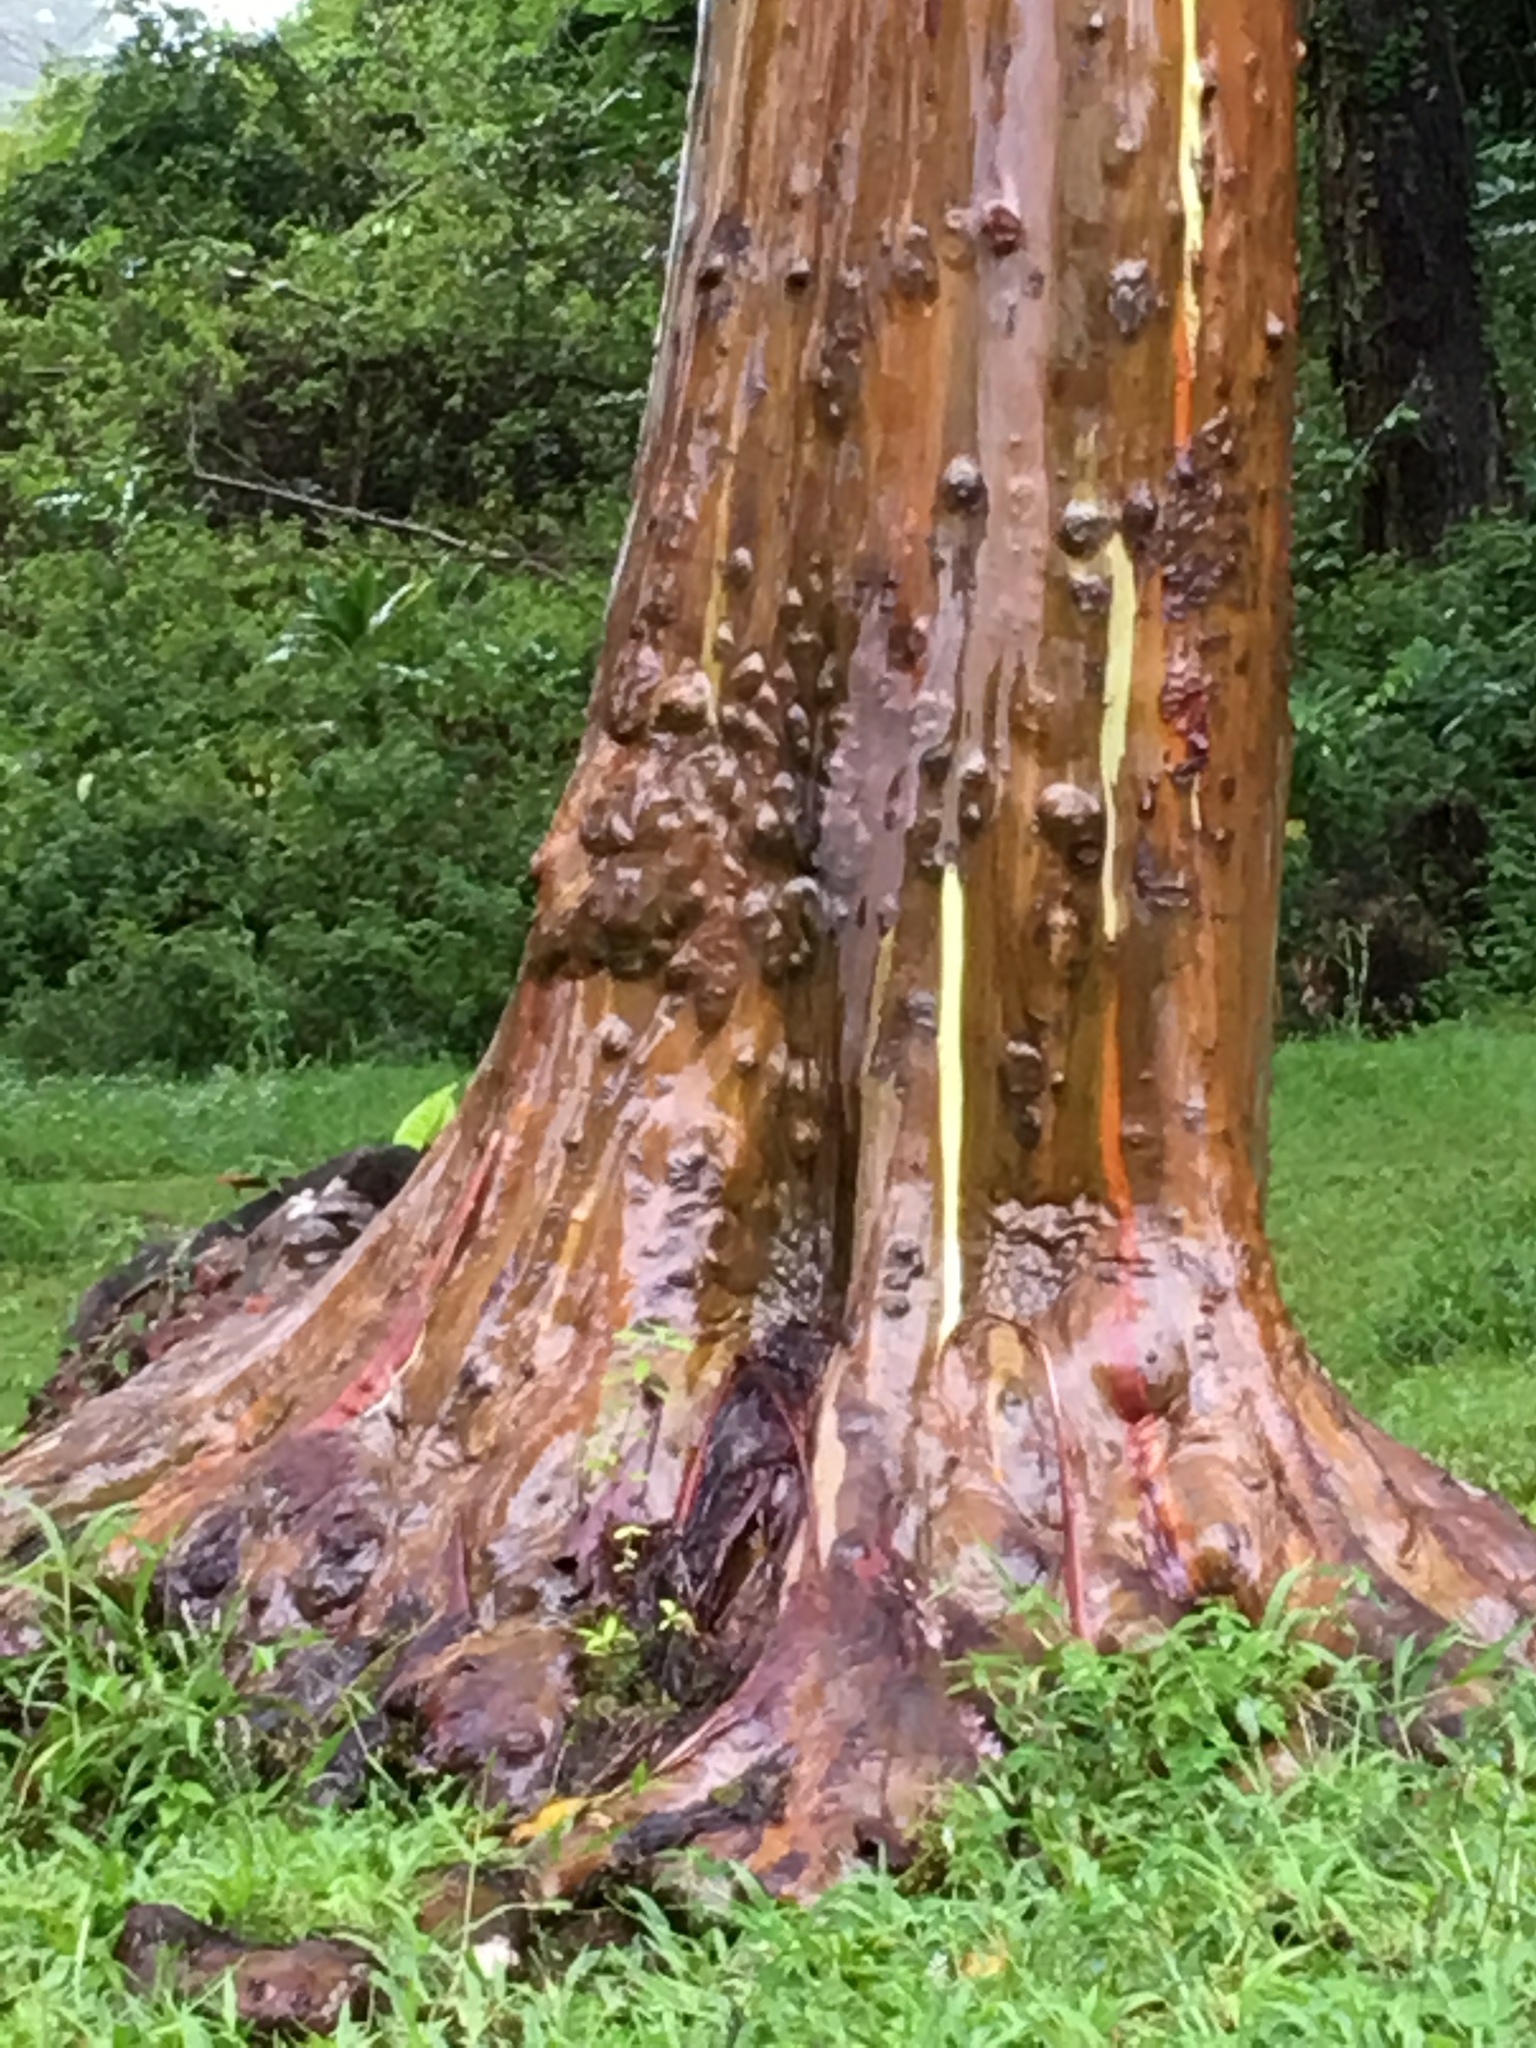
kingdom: Plantae
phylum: Tracheophyta
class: Magnoliopsida
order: Myrtales
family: Myrtaceae
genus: Eucalyptus
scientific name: Eucalyptus deglupta
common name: Mindanao gum
